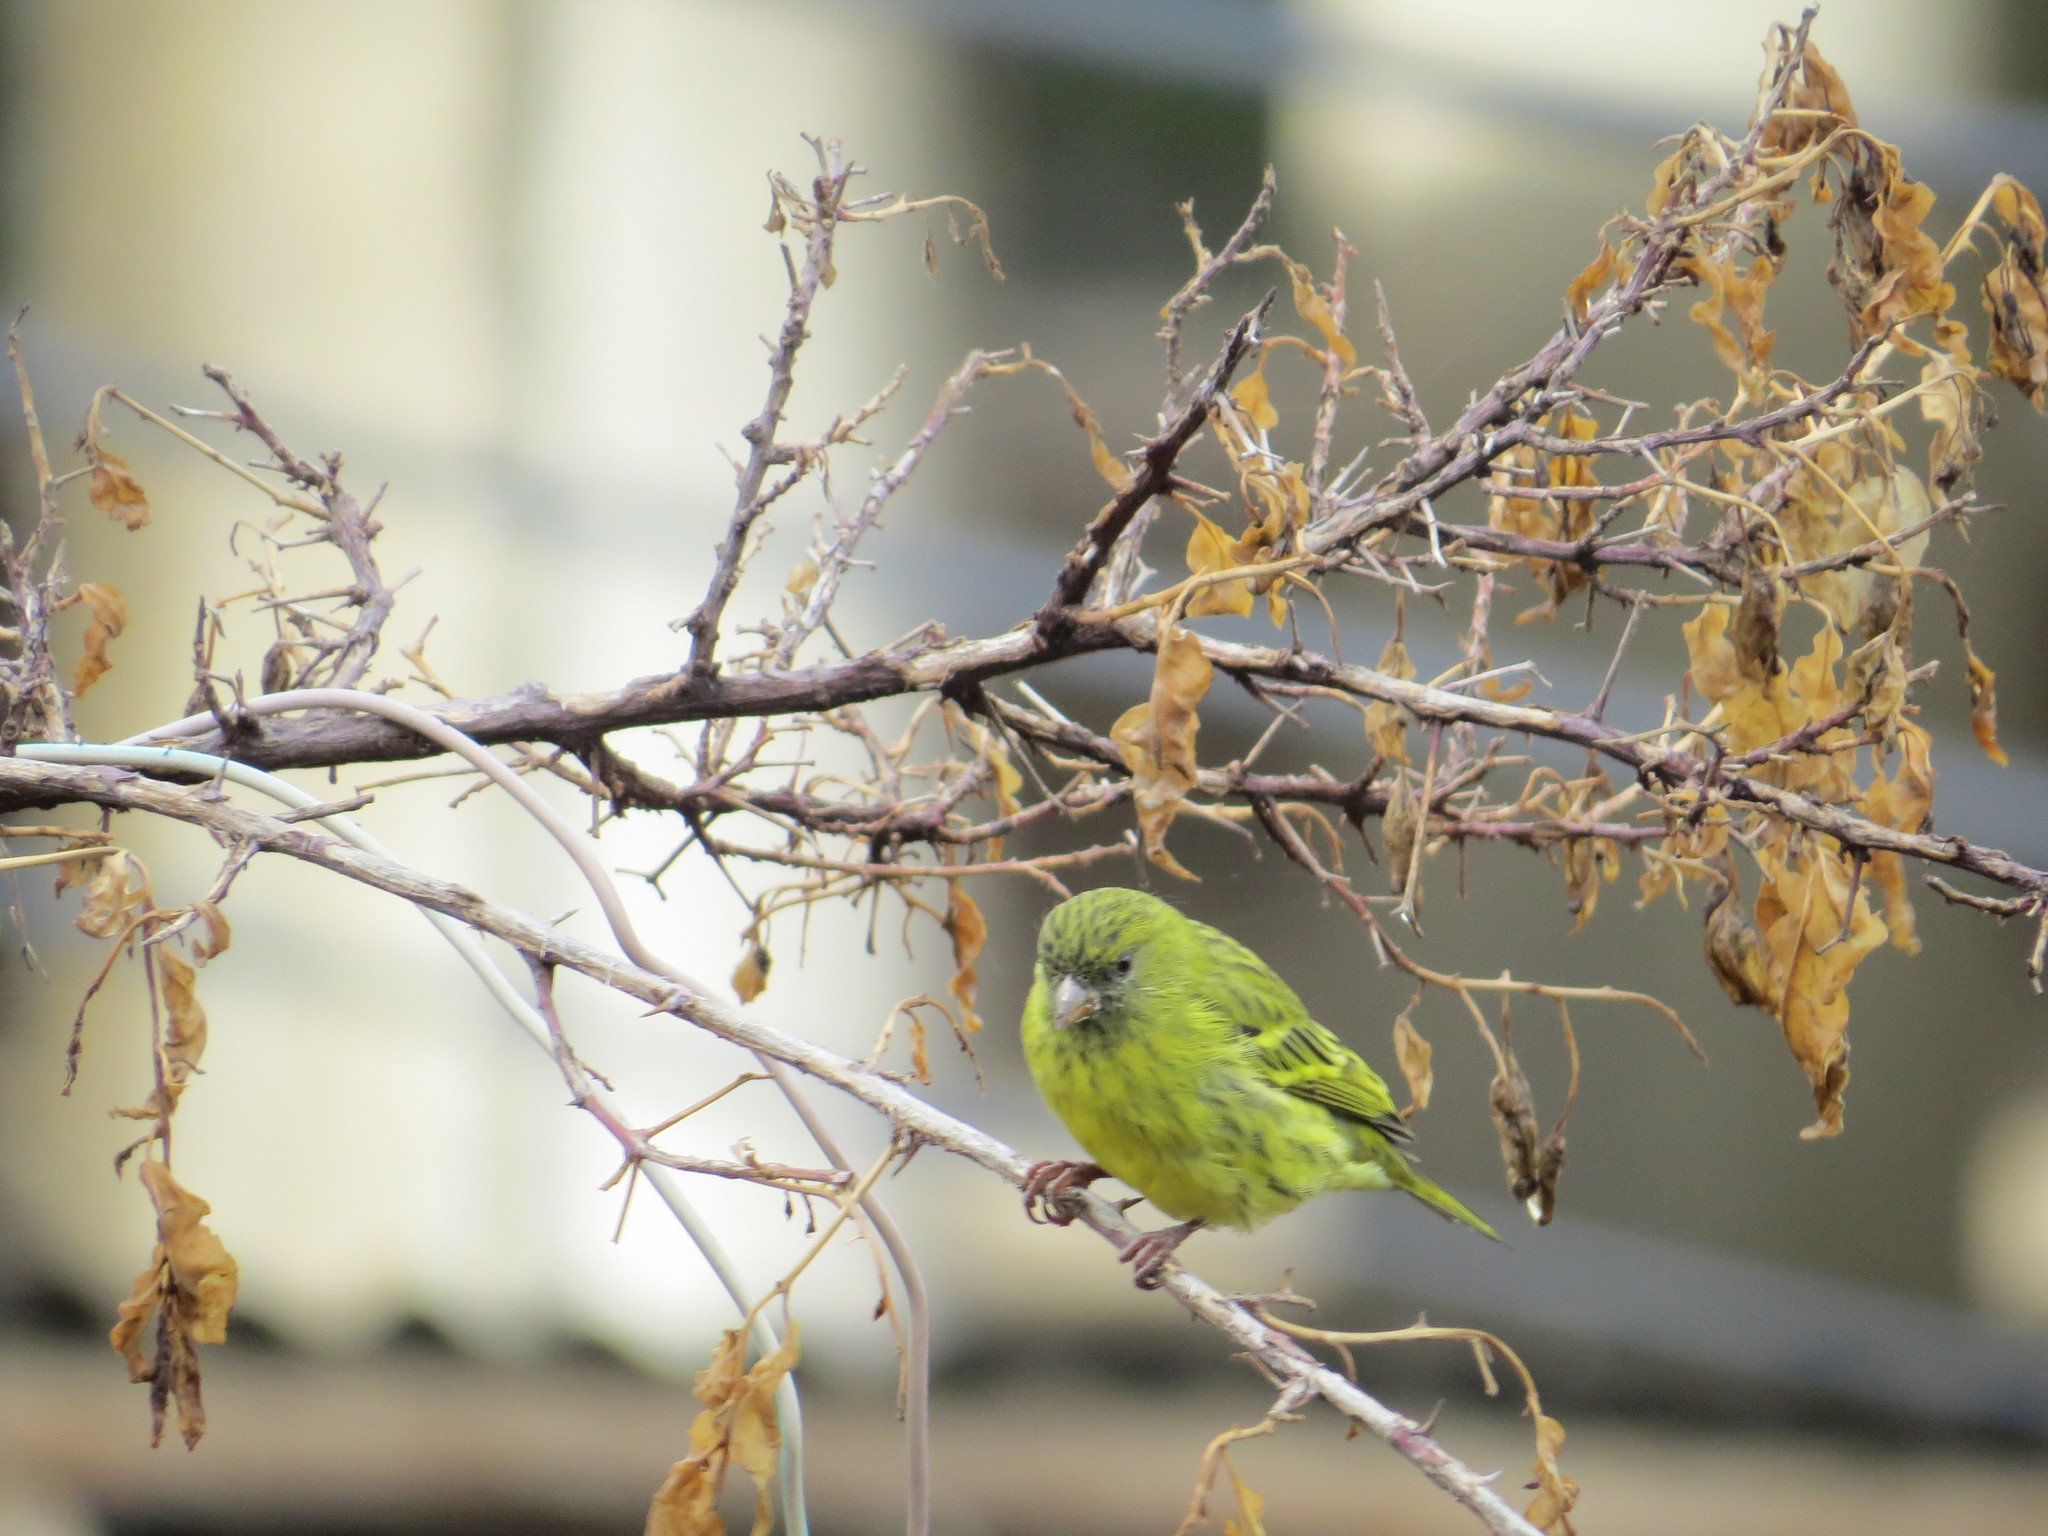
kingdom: Animalia
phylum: Chordata
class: Aves
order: Passeriformes
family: Fringillidae
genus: Crithagra
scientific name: Crithagra citrinelloides
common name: African citril
